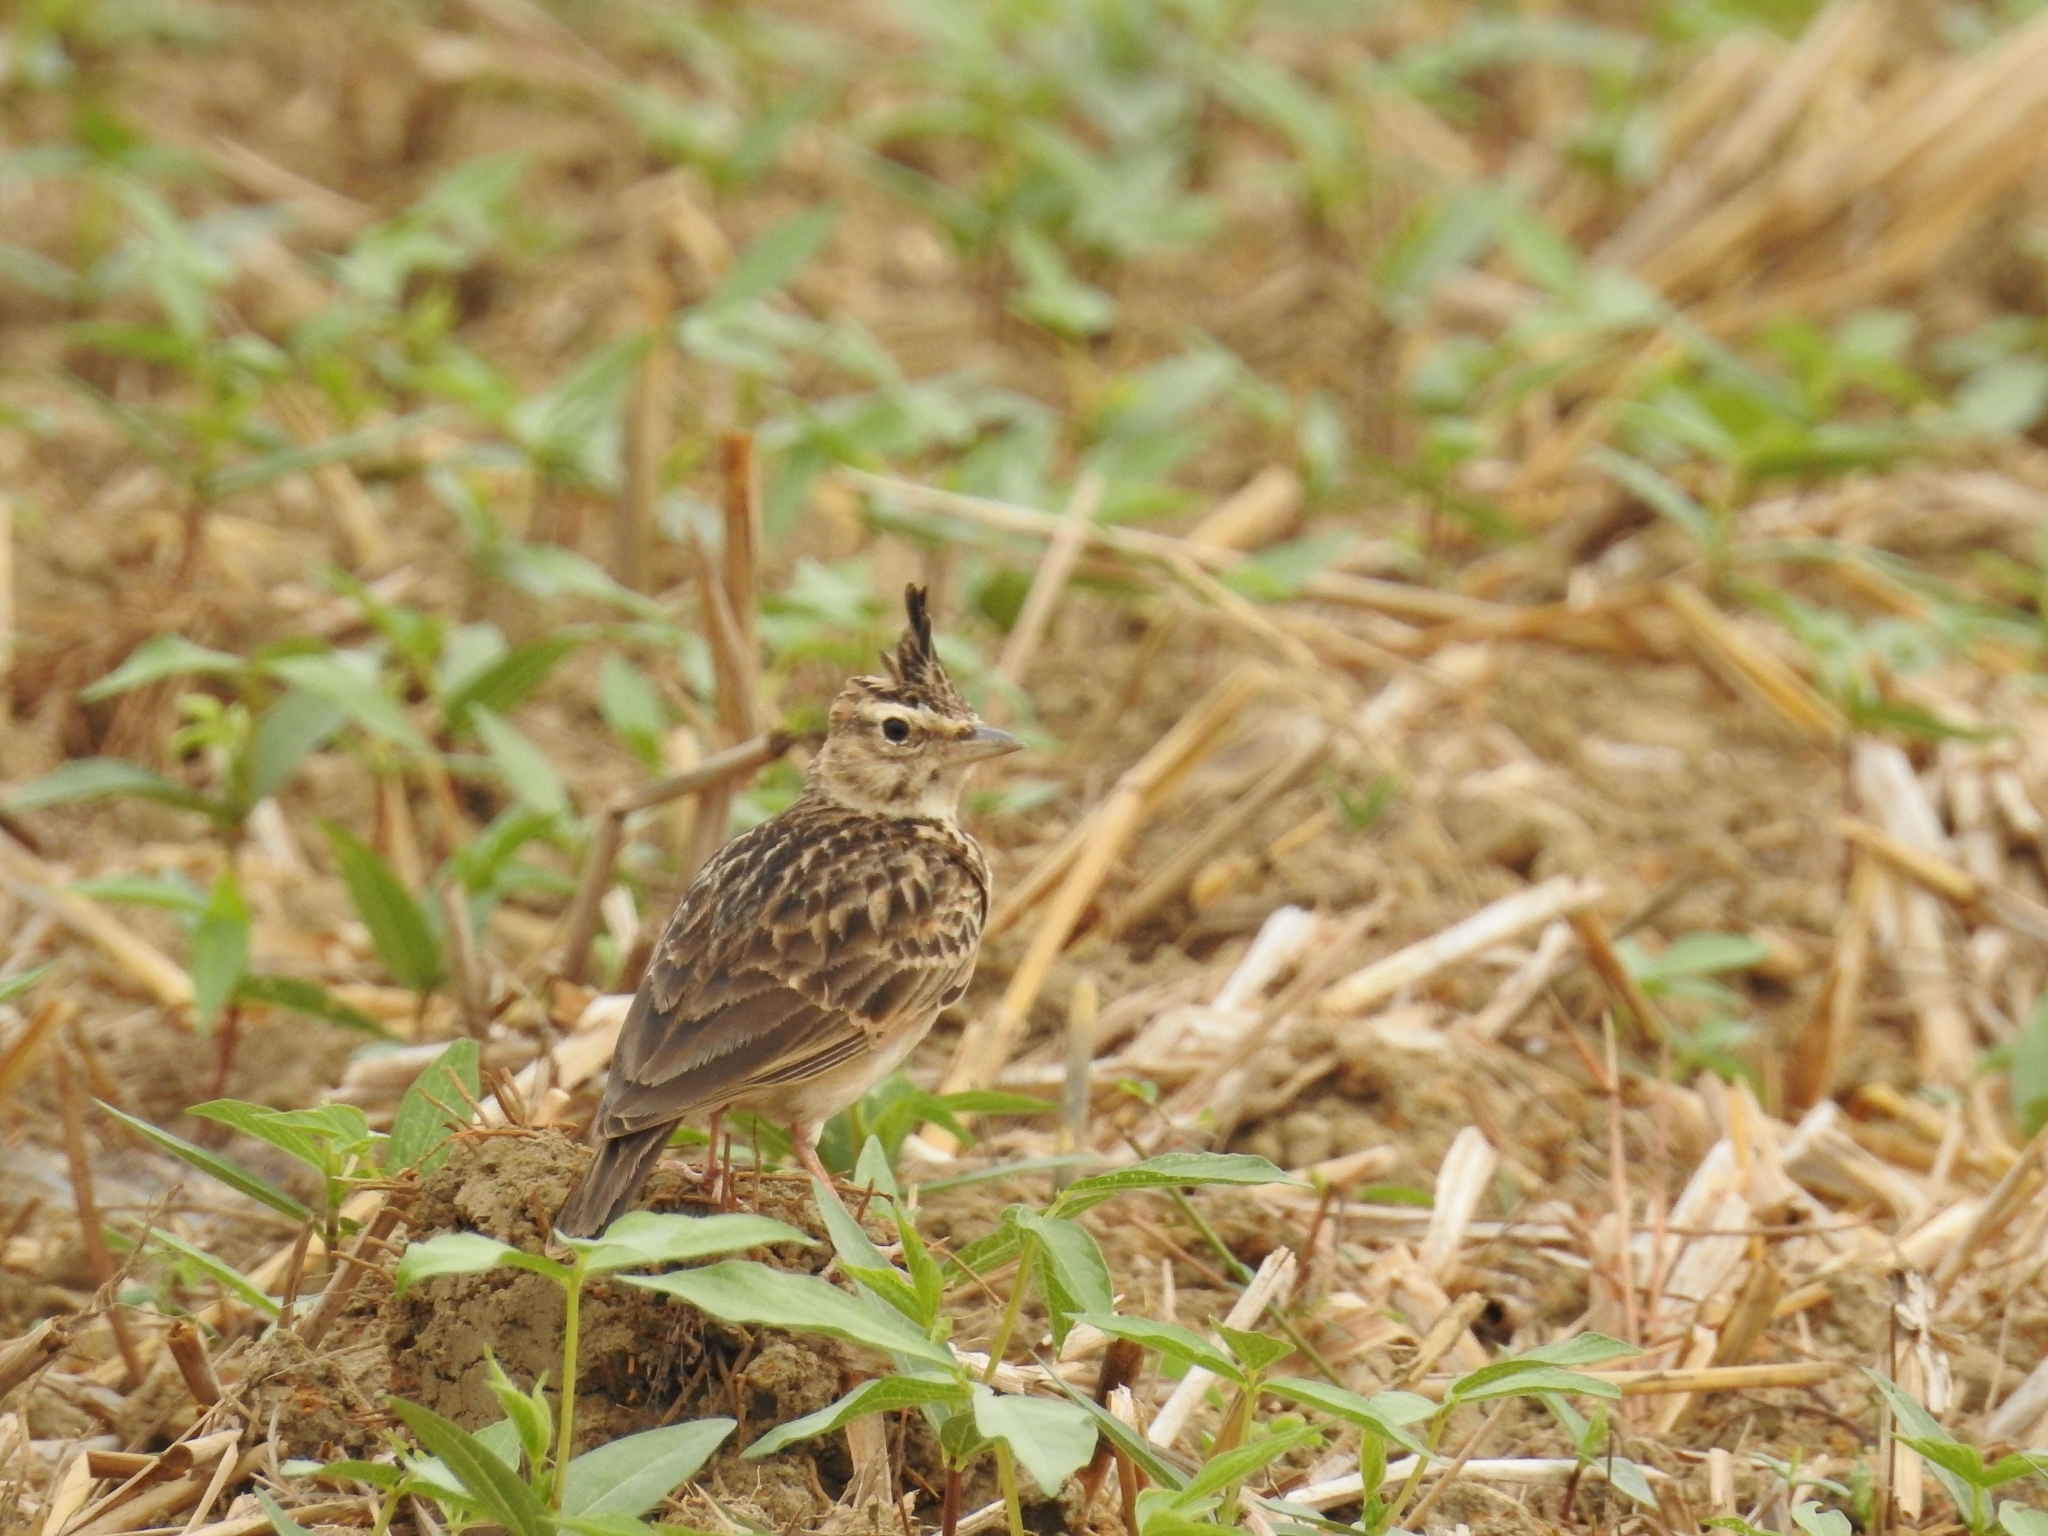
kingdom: Animalia
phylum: Chordata
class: Aves
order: Passeriformes
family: Alaudidae
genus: Galerida
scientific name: Galerida malabarica
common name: Malabar lark
